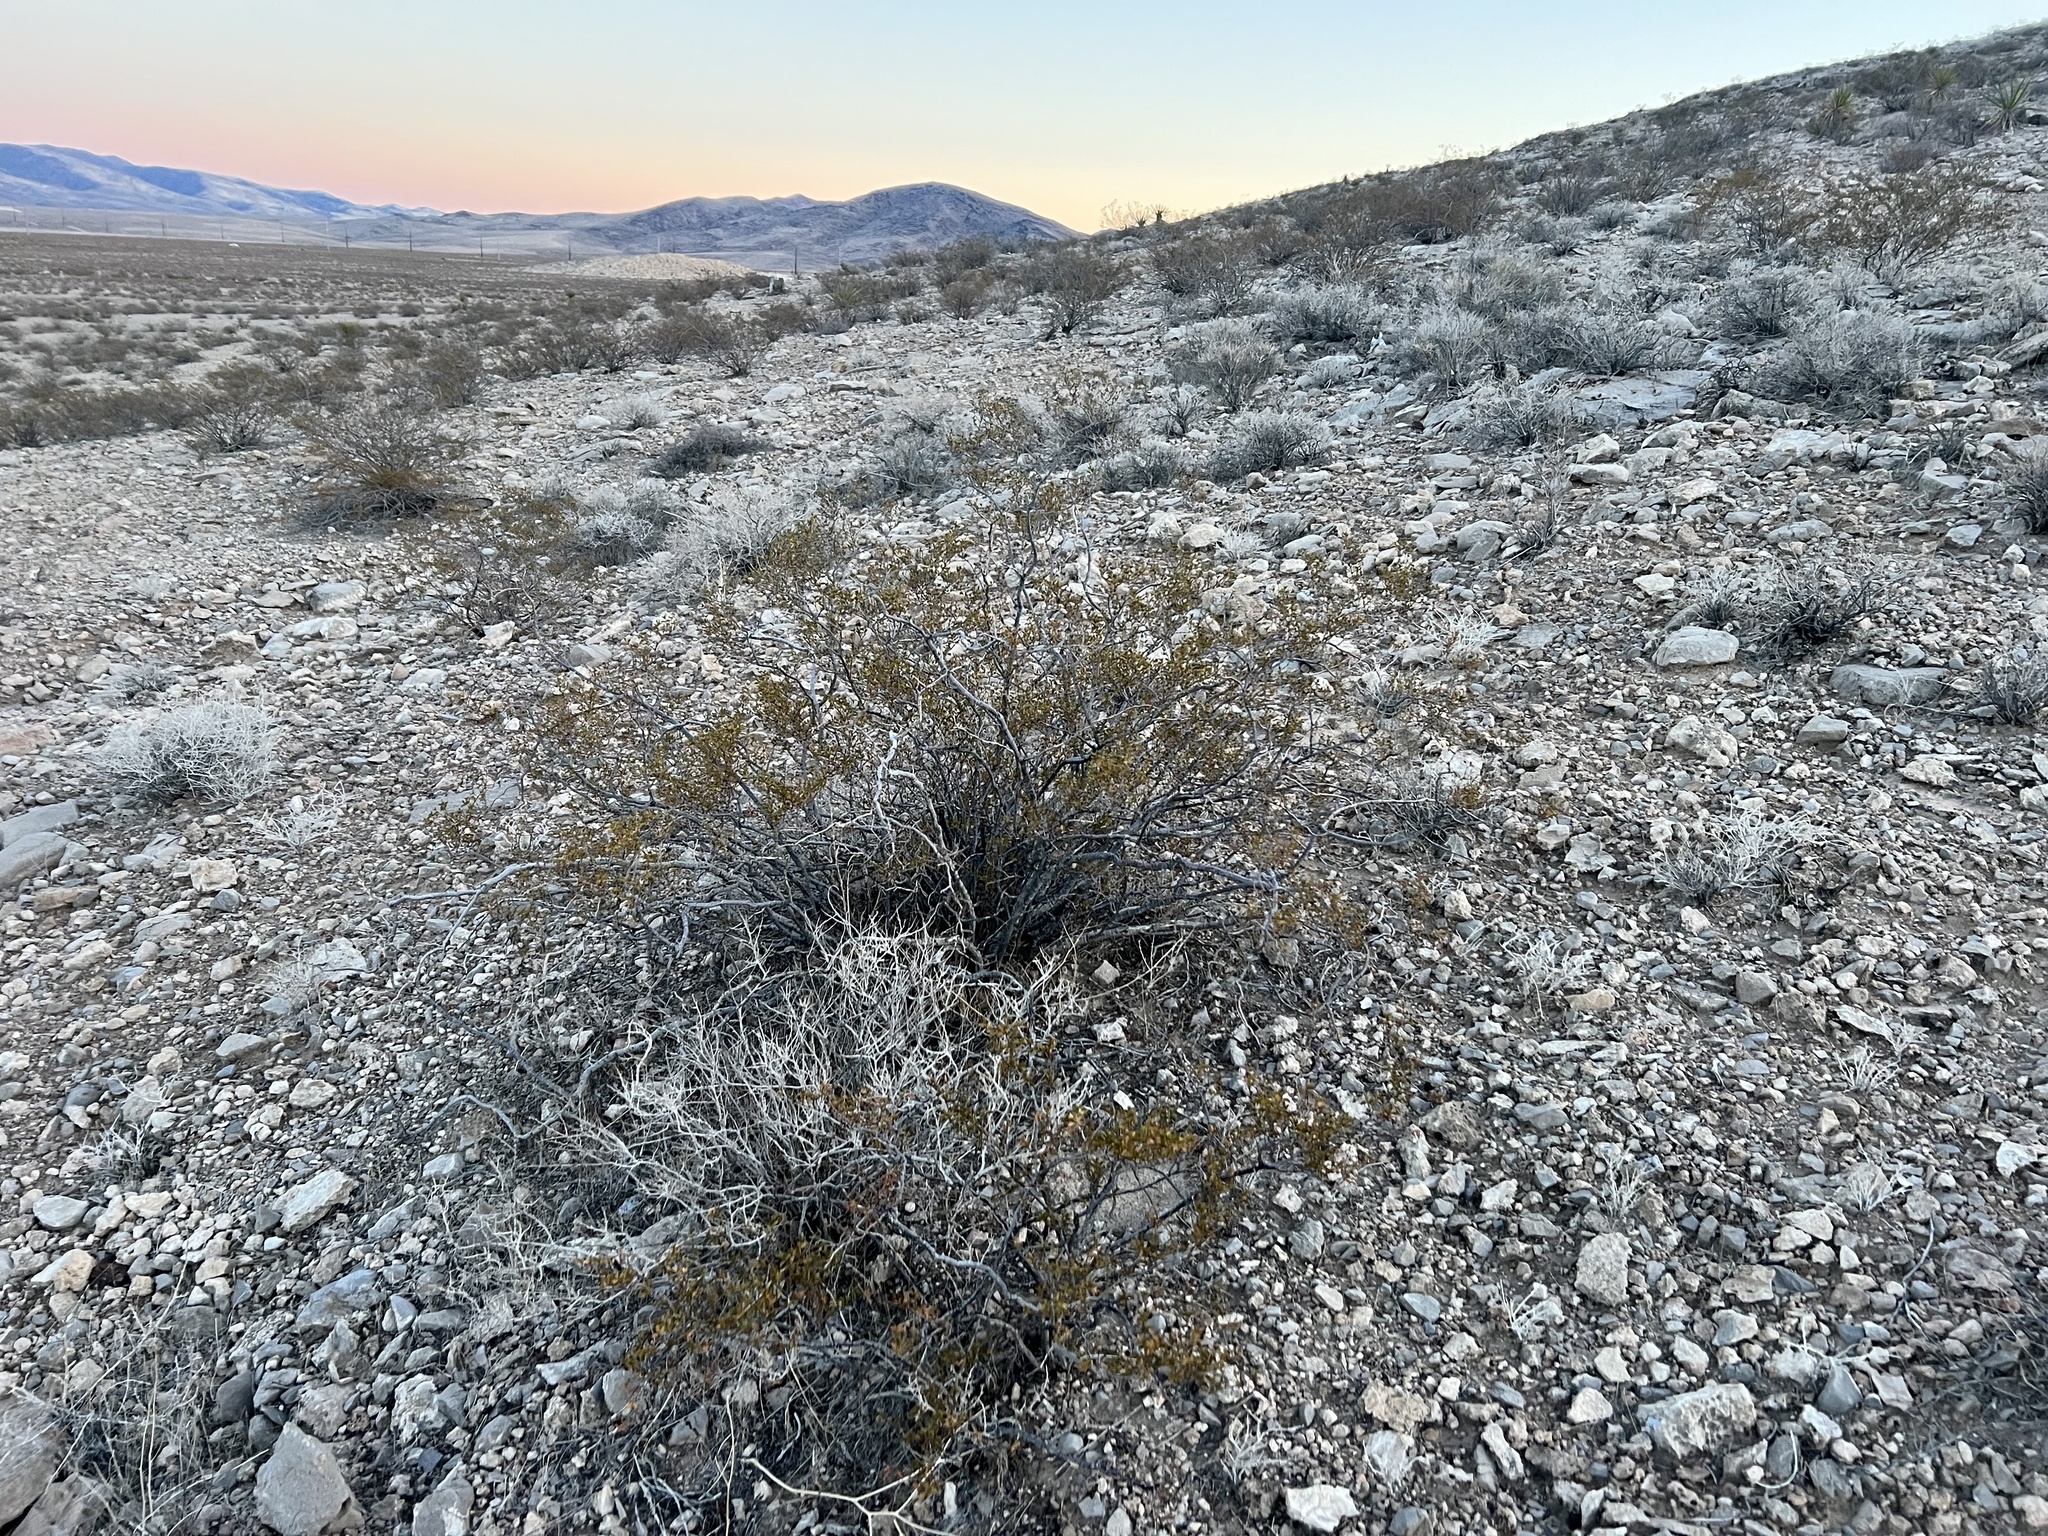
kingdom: Plantae
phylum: Tracheophyta
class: Magnoliopsida
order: Zygophyllales
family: Zygophyllaceae
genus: Larrea
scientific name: Larrea tridentata
